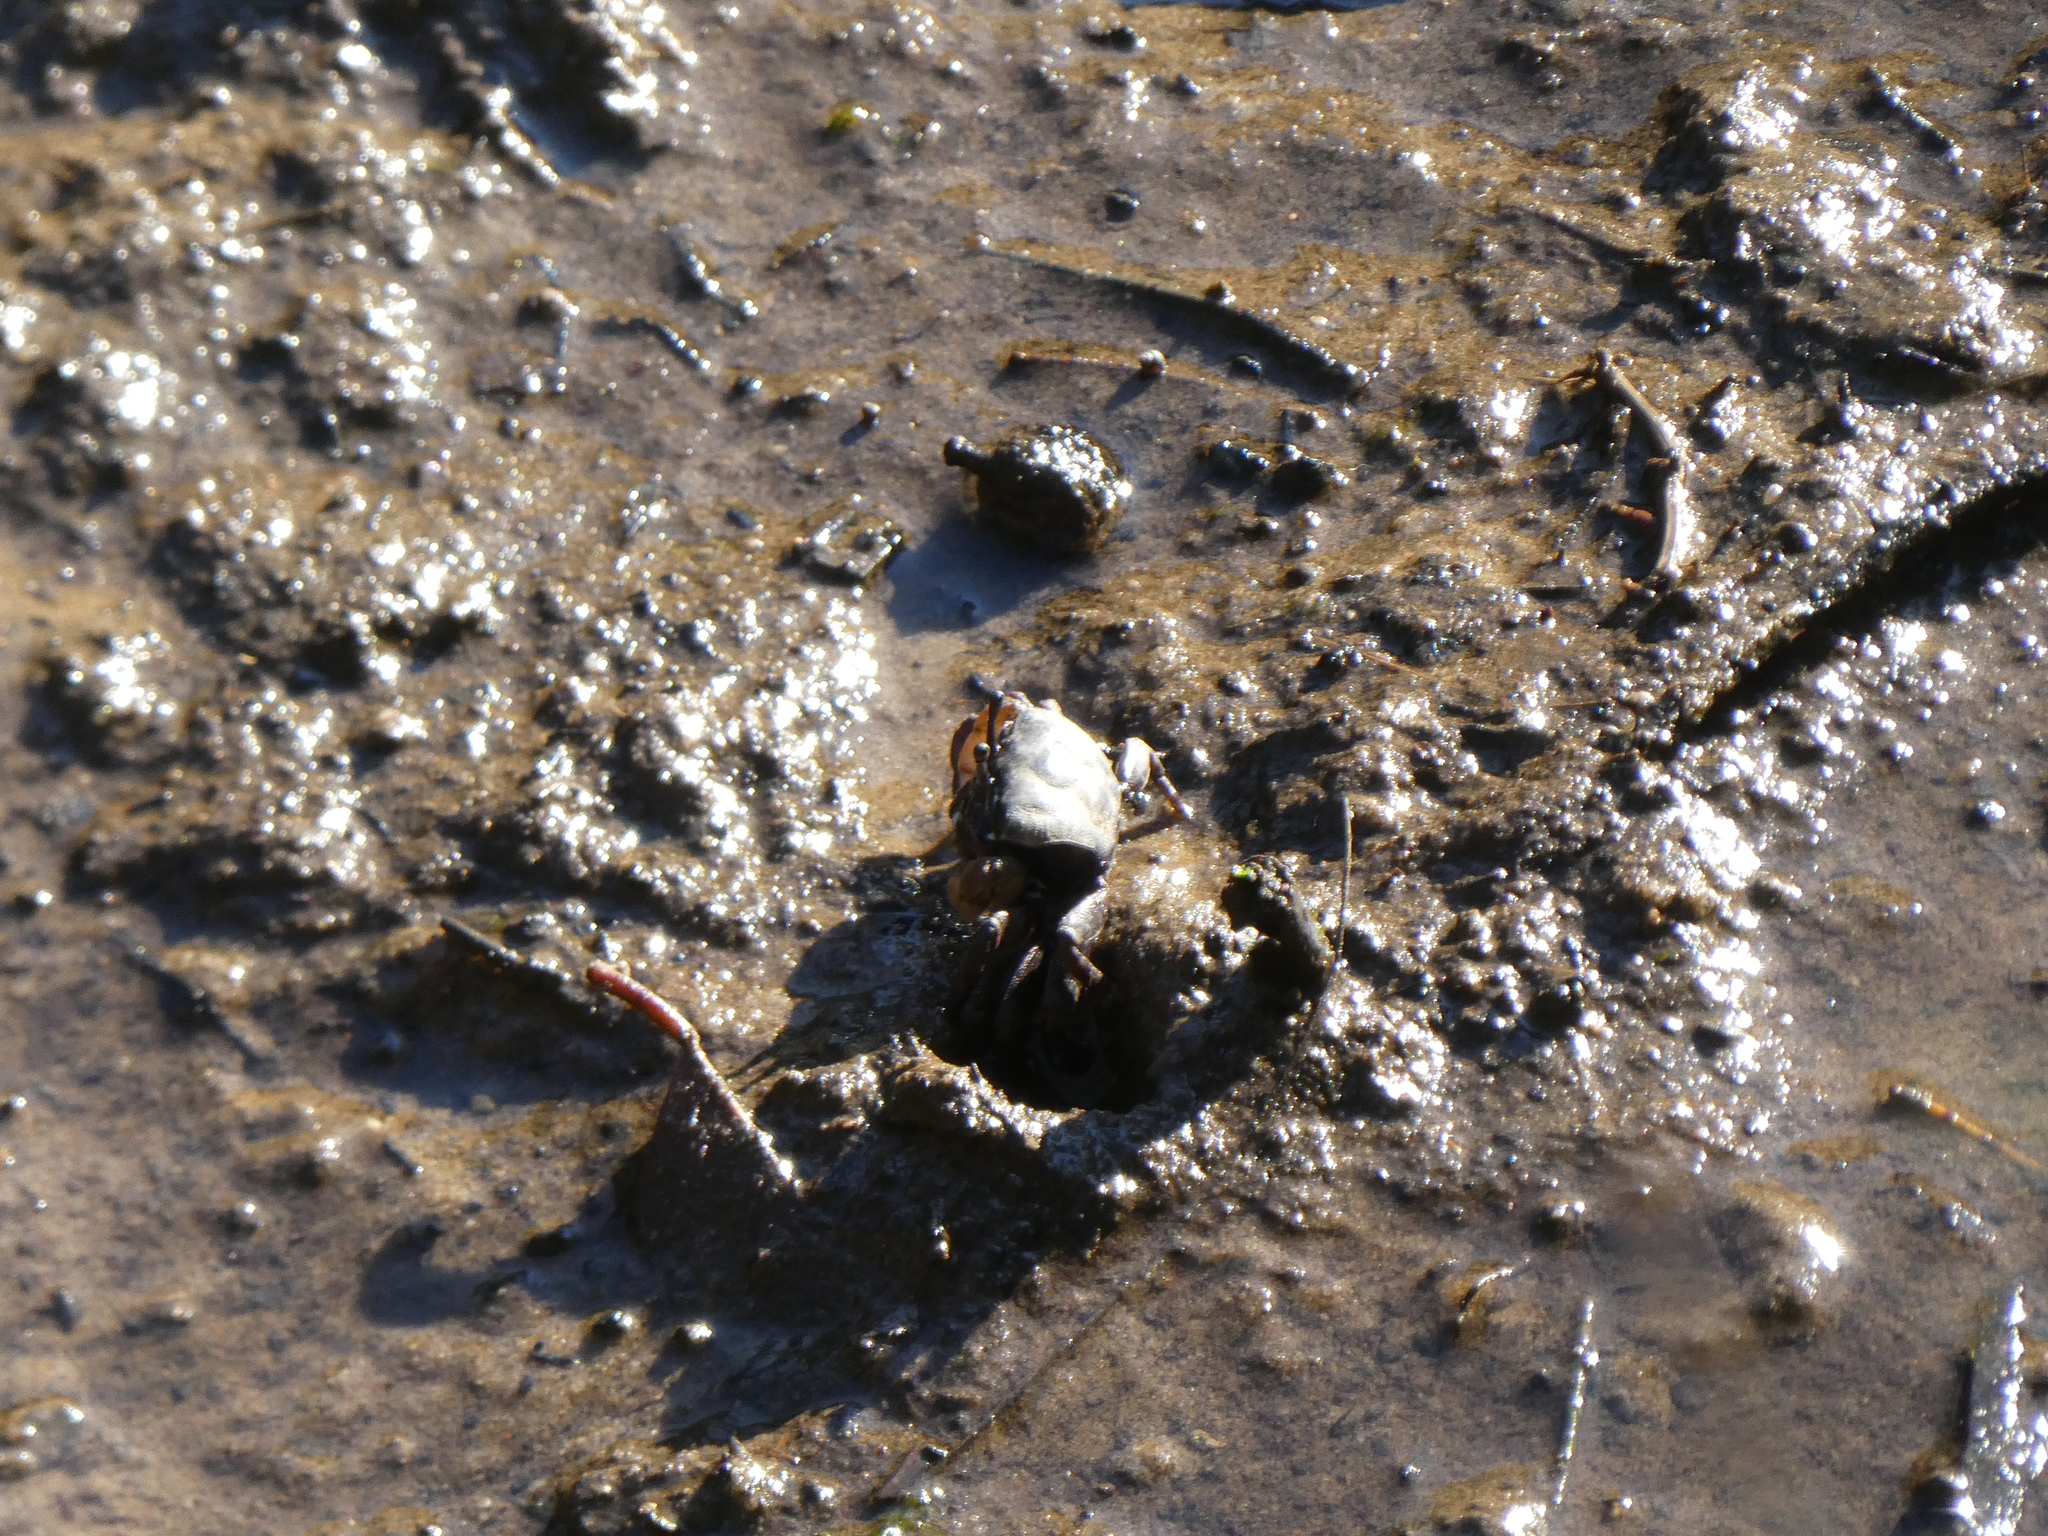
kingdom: Animalia
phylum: Arthropoda
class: Malacostraca
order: Decapoda
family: Heloeciidae
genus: Heloecius
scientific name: Heloecius cordiformis
